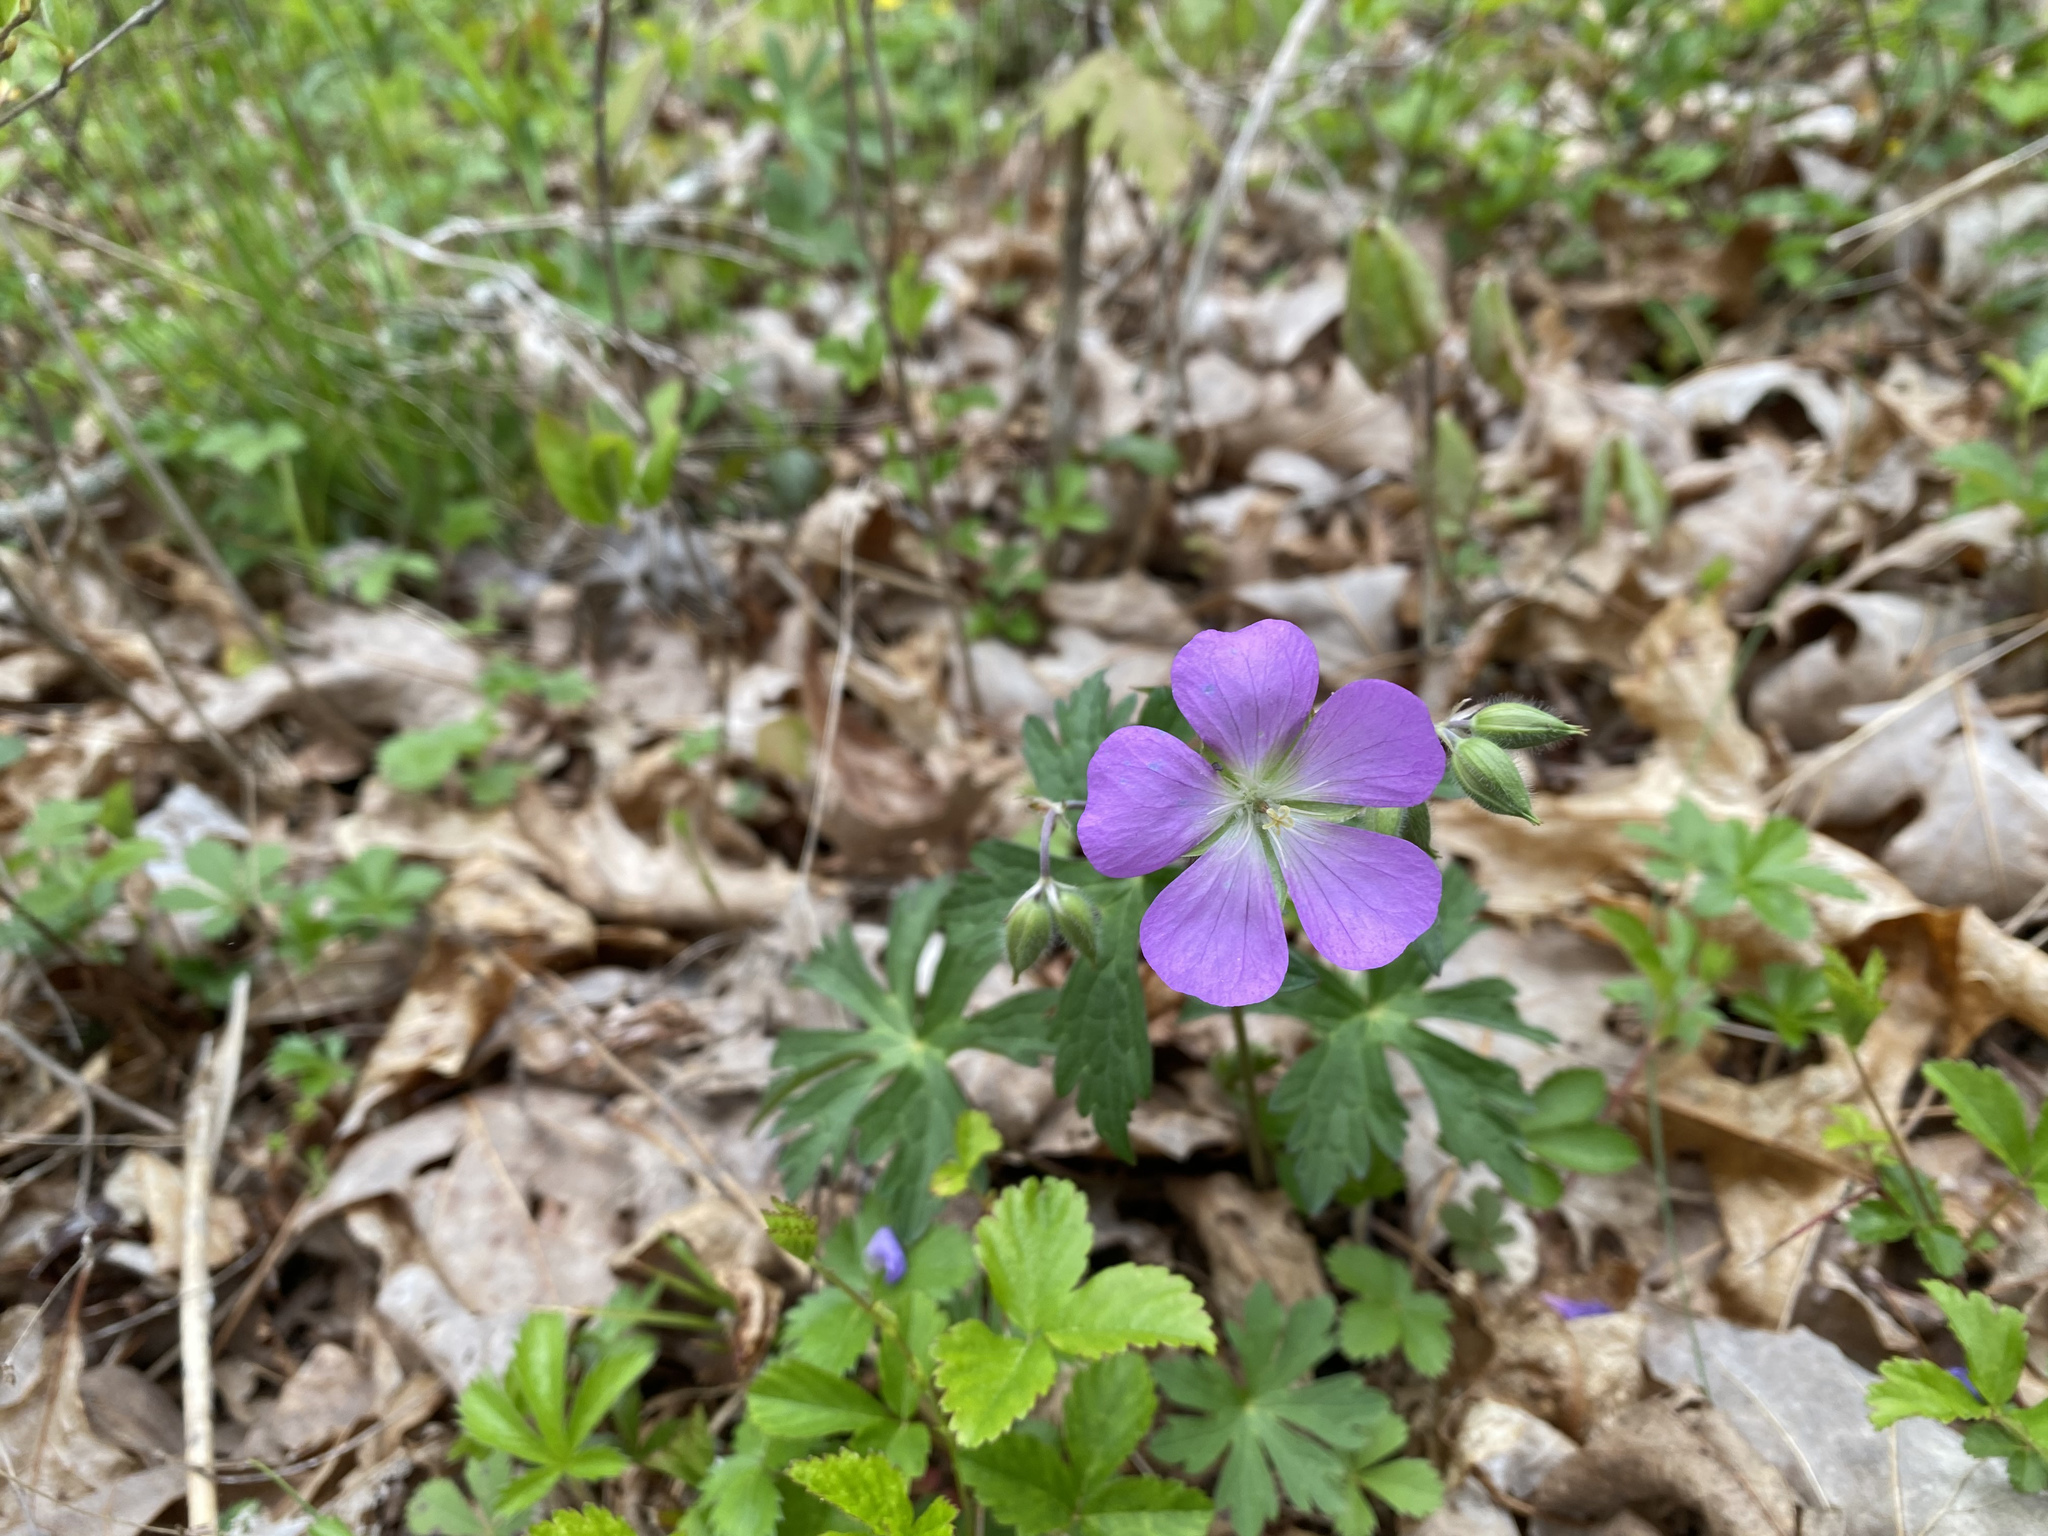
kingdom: Plantae
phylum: Tracheophyta
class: Magnoliopsida
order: Geraniales
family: Geraniaceae
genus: Geranium
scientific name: Geranium maculatum
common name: Spotted geranium
